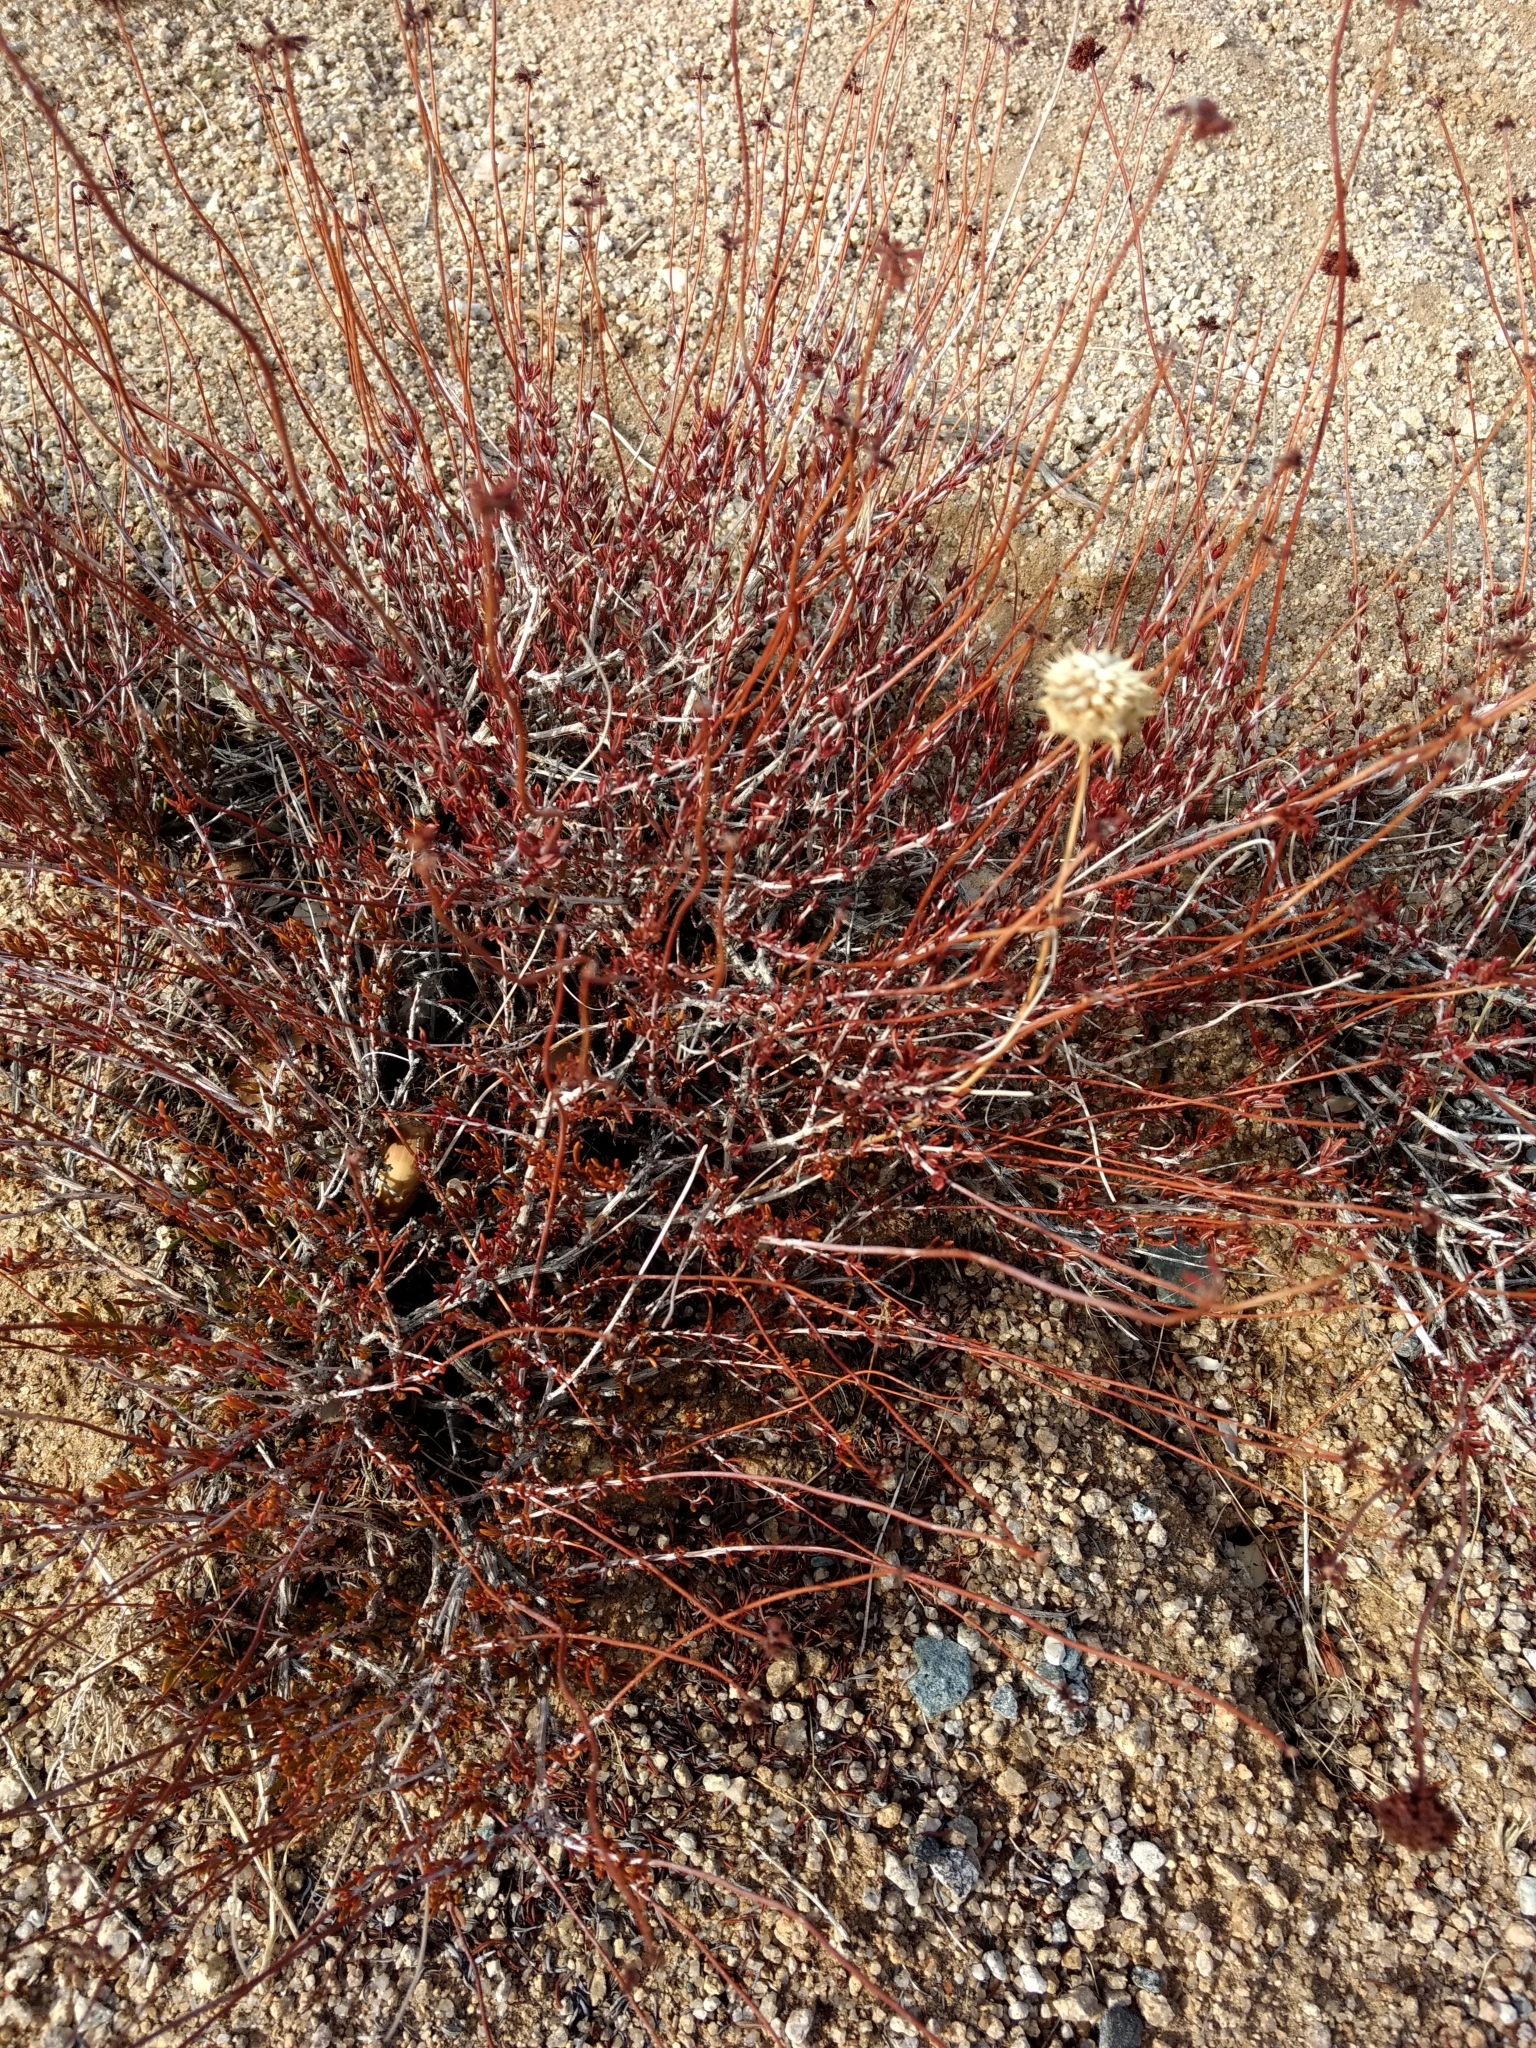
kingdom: Plantae
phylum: Tracheophyta
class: Magnoliopsida
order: Caryophyllales
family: Polygonaceae
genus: Eriogonum
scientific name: Eriogonum fasciculatum
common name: California wild buckwheat
